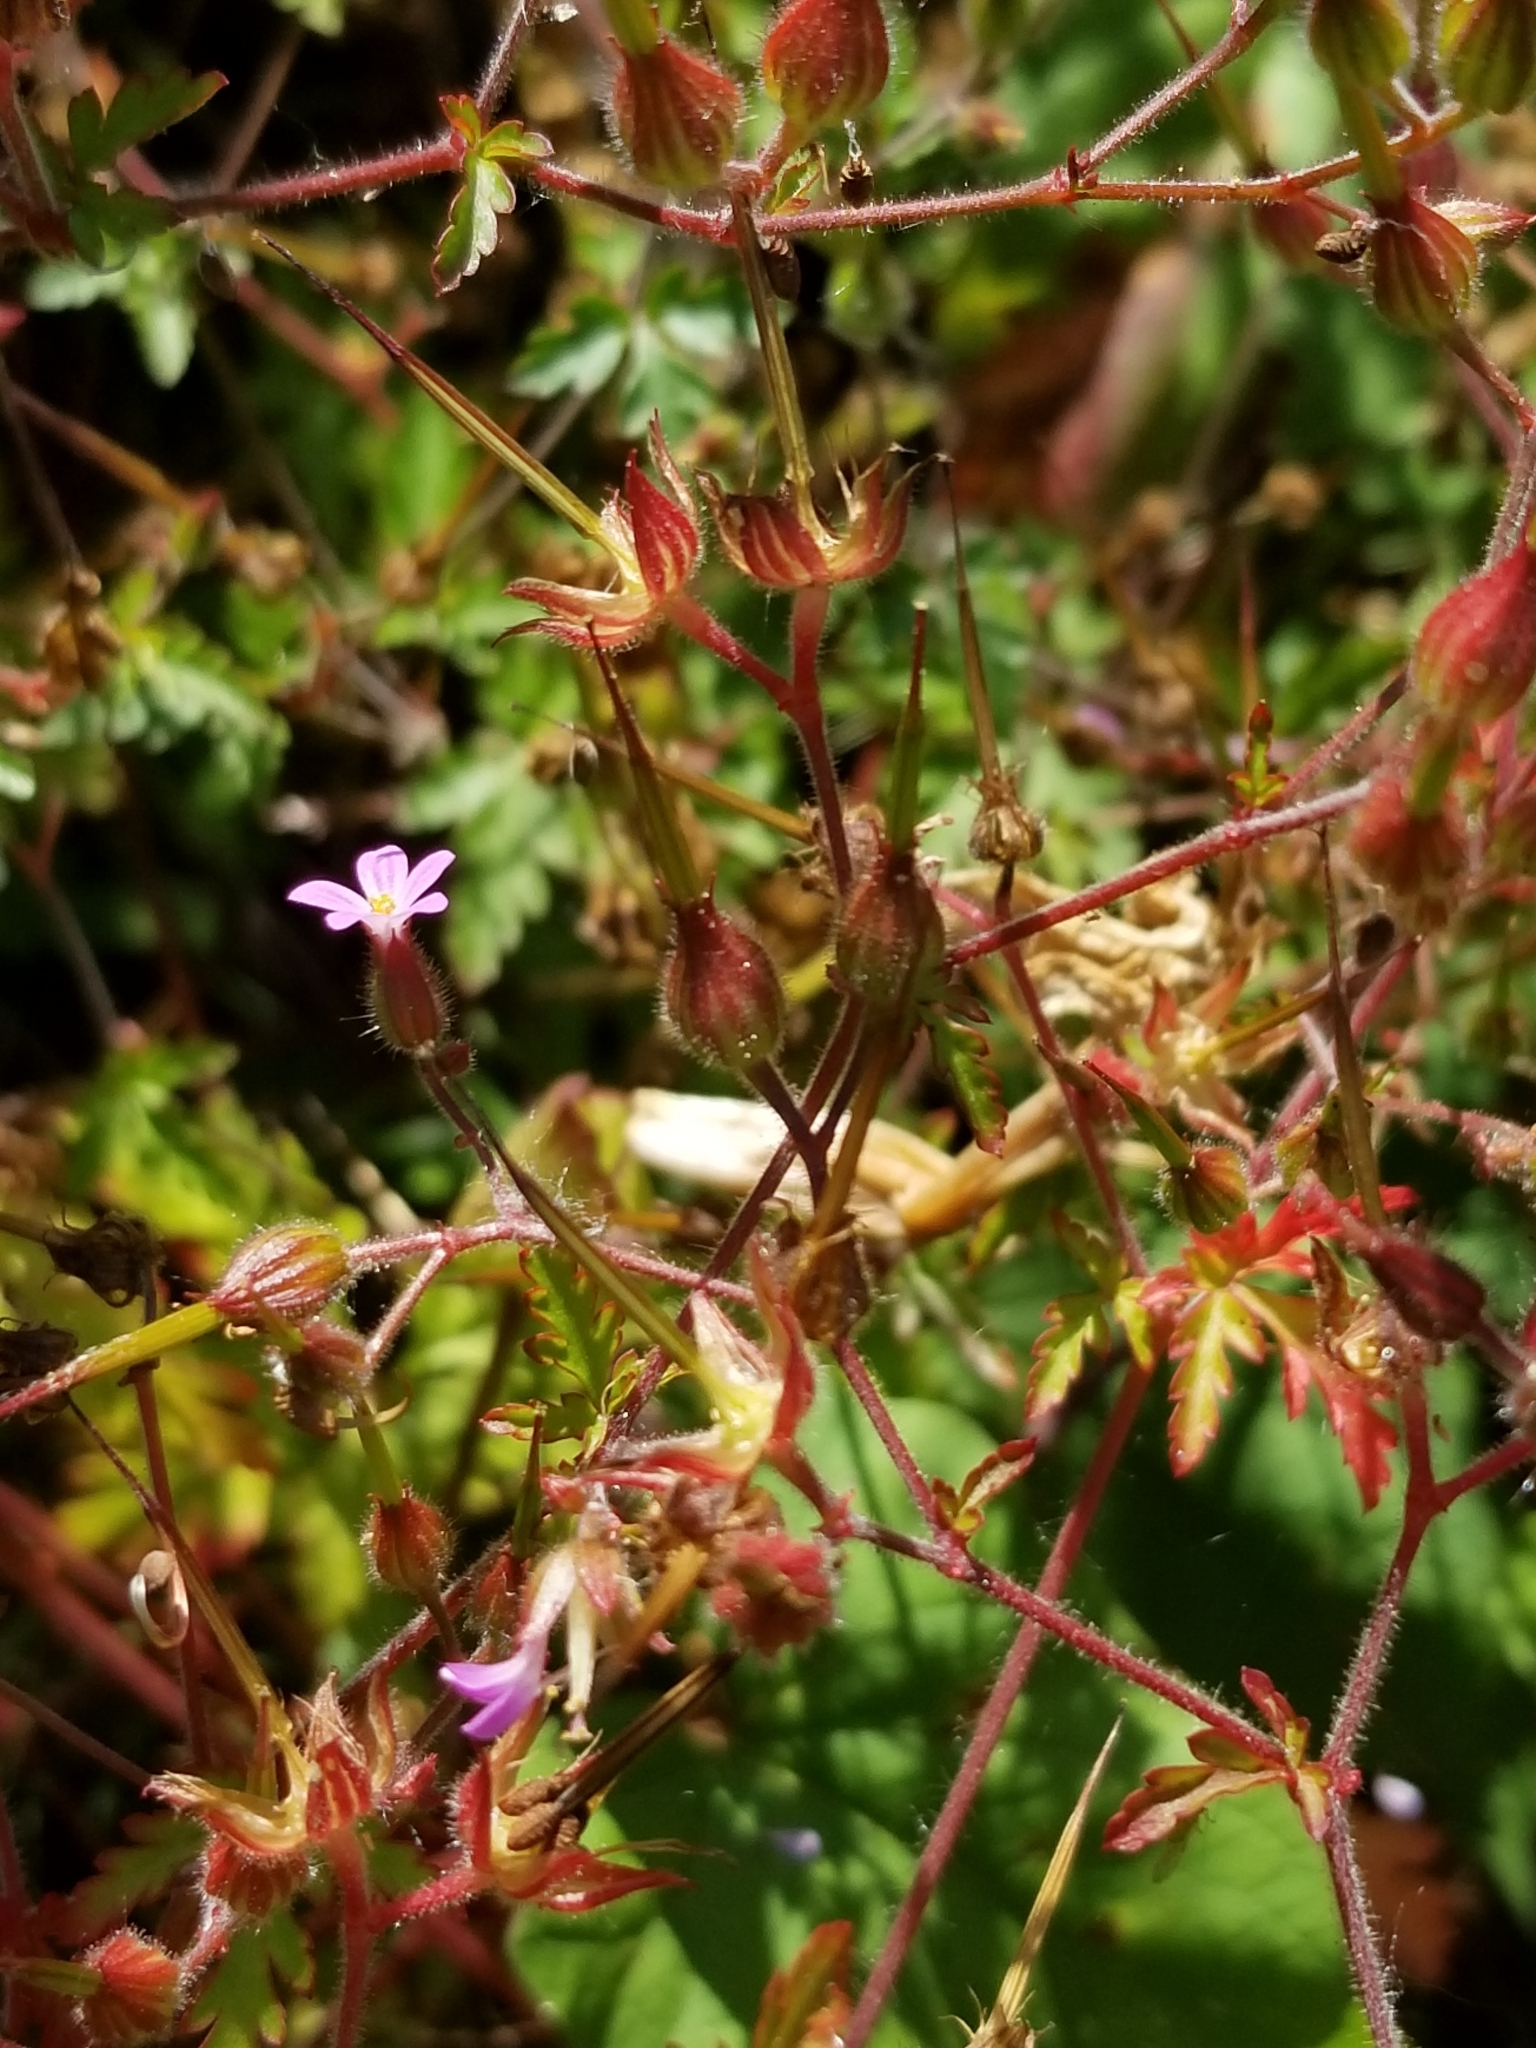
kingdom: Plantae
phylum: Tracheophyta
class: Magnoliopsida
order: Geraniales
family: Geraniaceae
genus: Geranium
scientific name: Geranium robertianum
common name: Herb-robert
